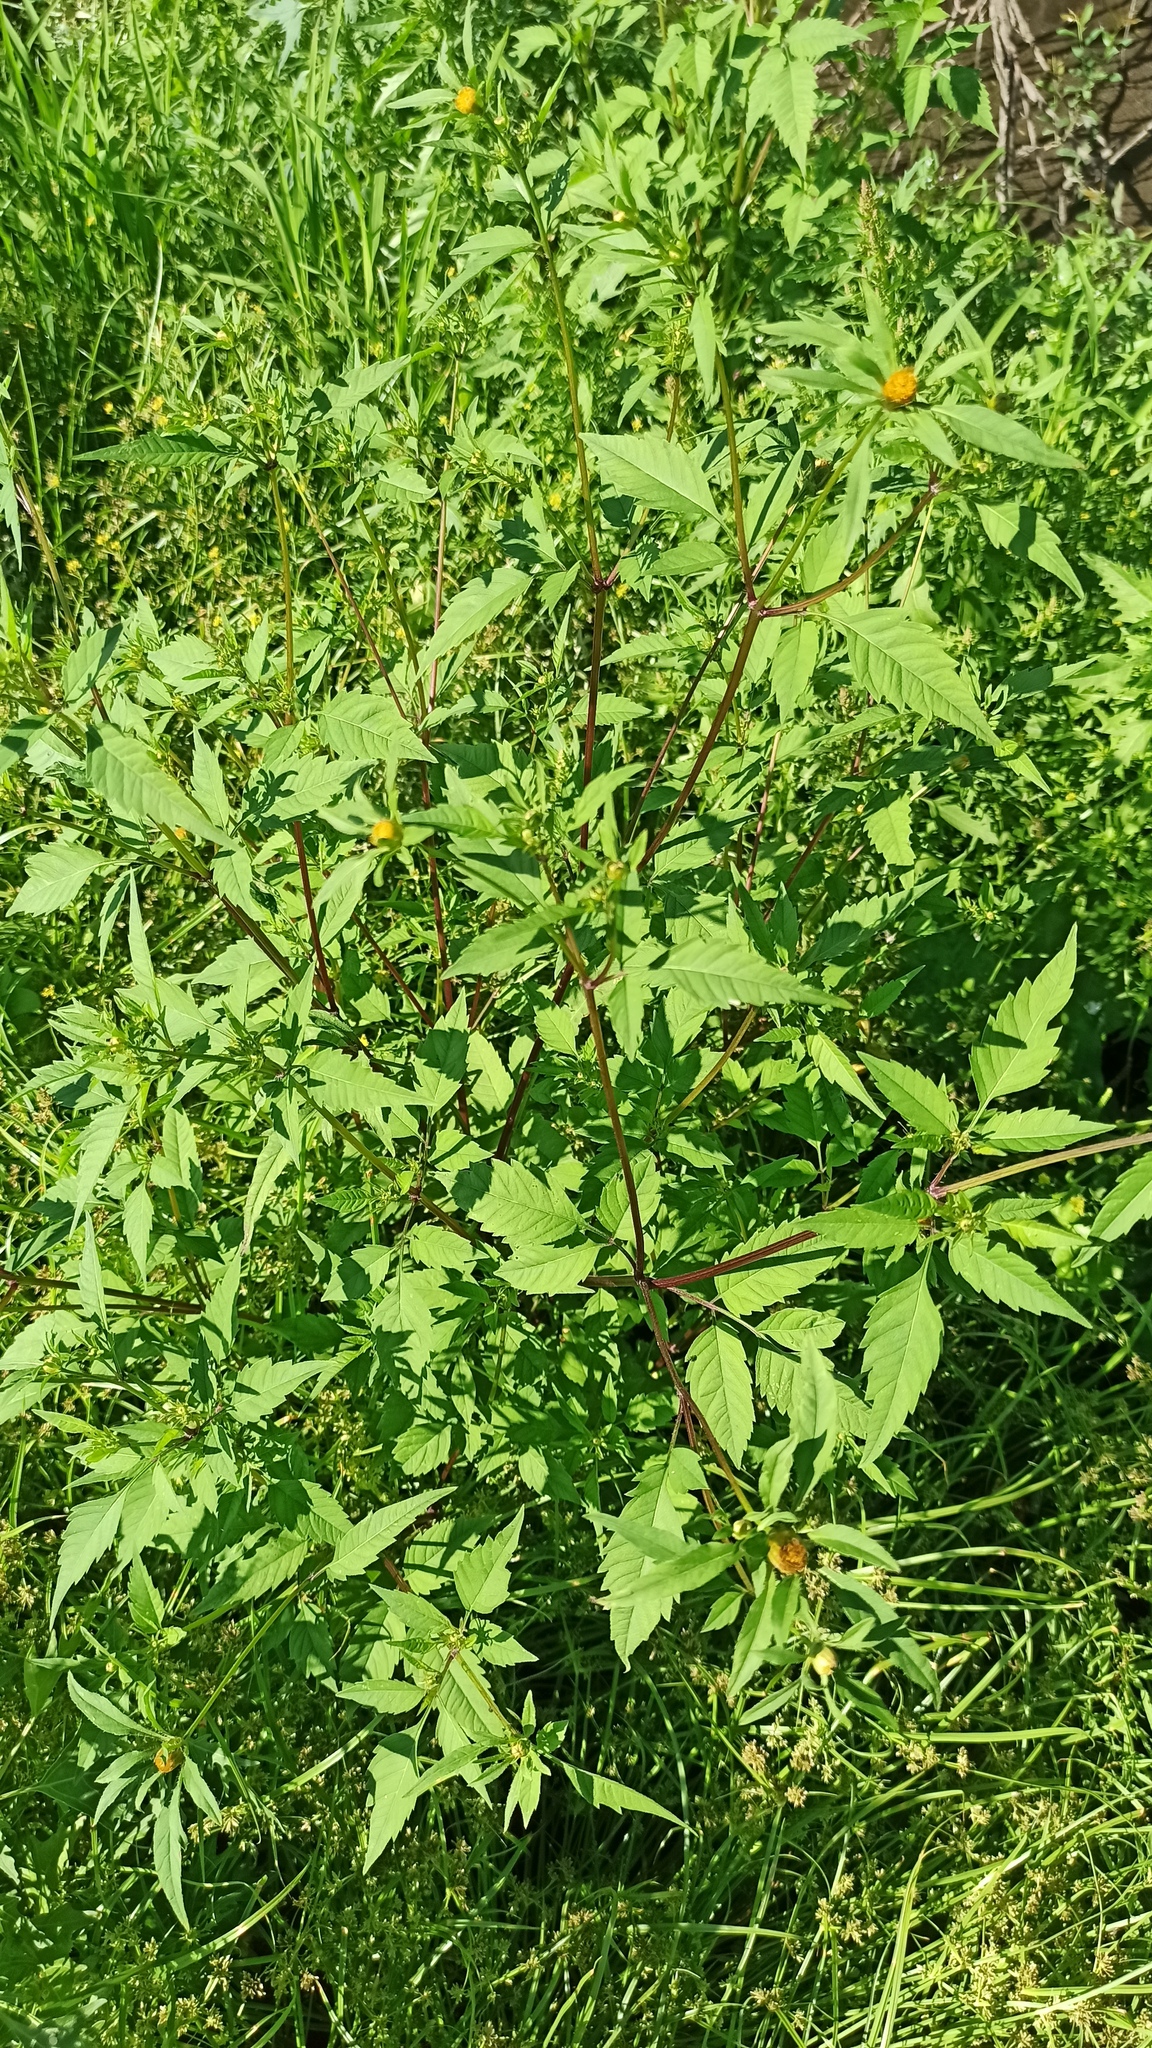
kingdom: Plantae
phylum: Tracheophyta
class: Magnoliopsida
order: Asterales
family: Asteraceae
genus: Bidens
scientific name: Bidens frondosa
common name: Beggarticks
